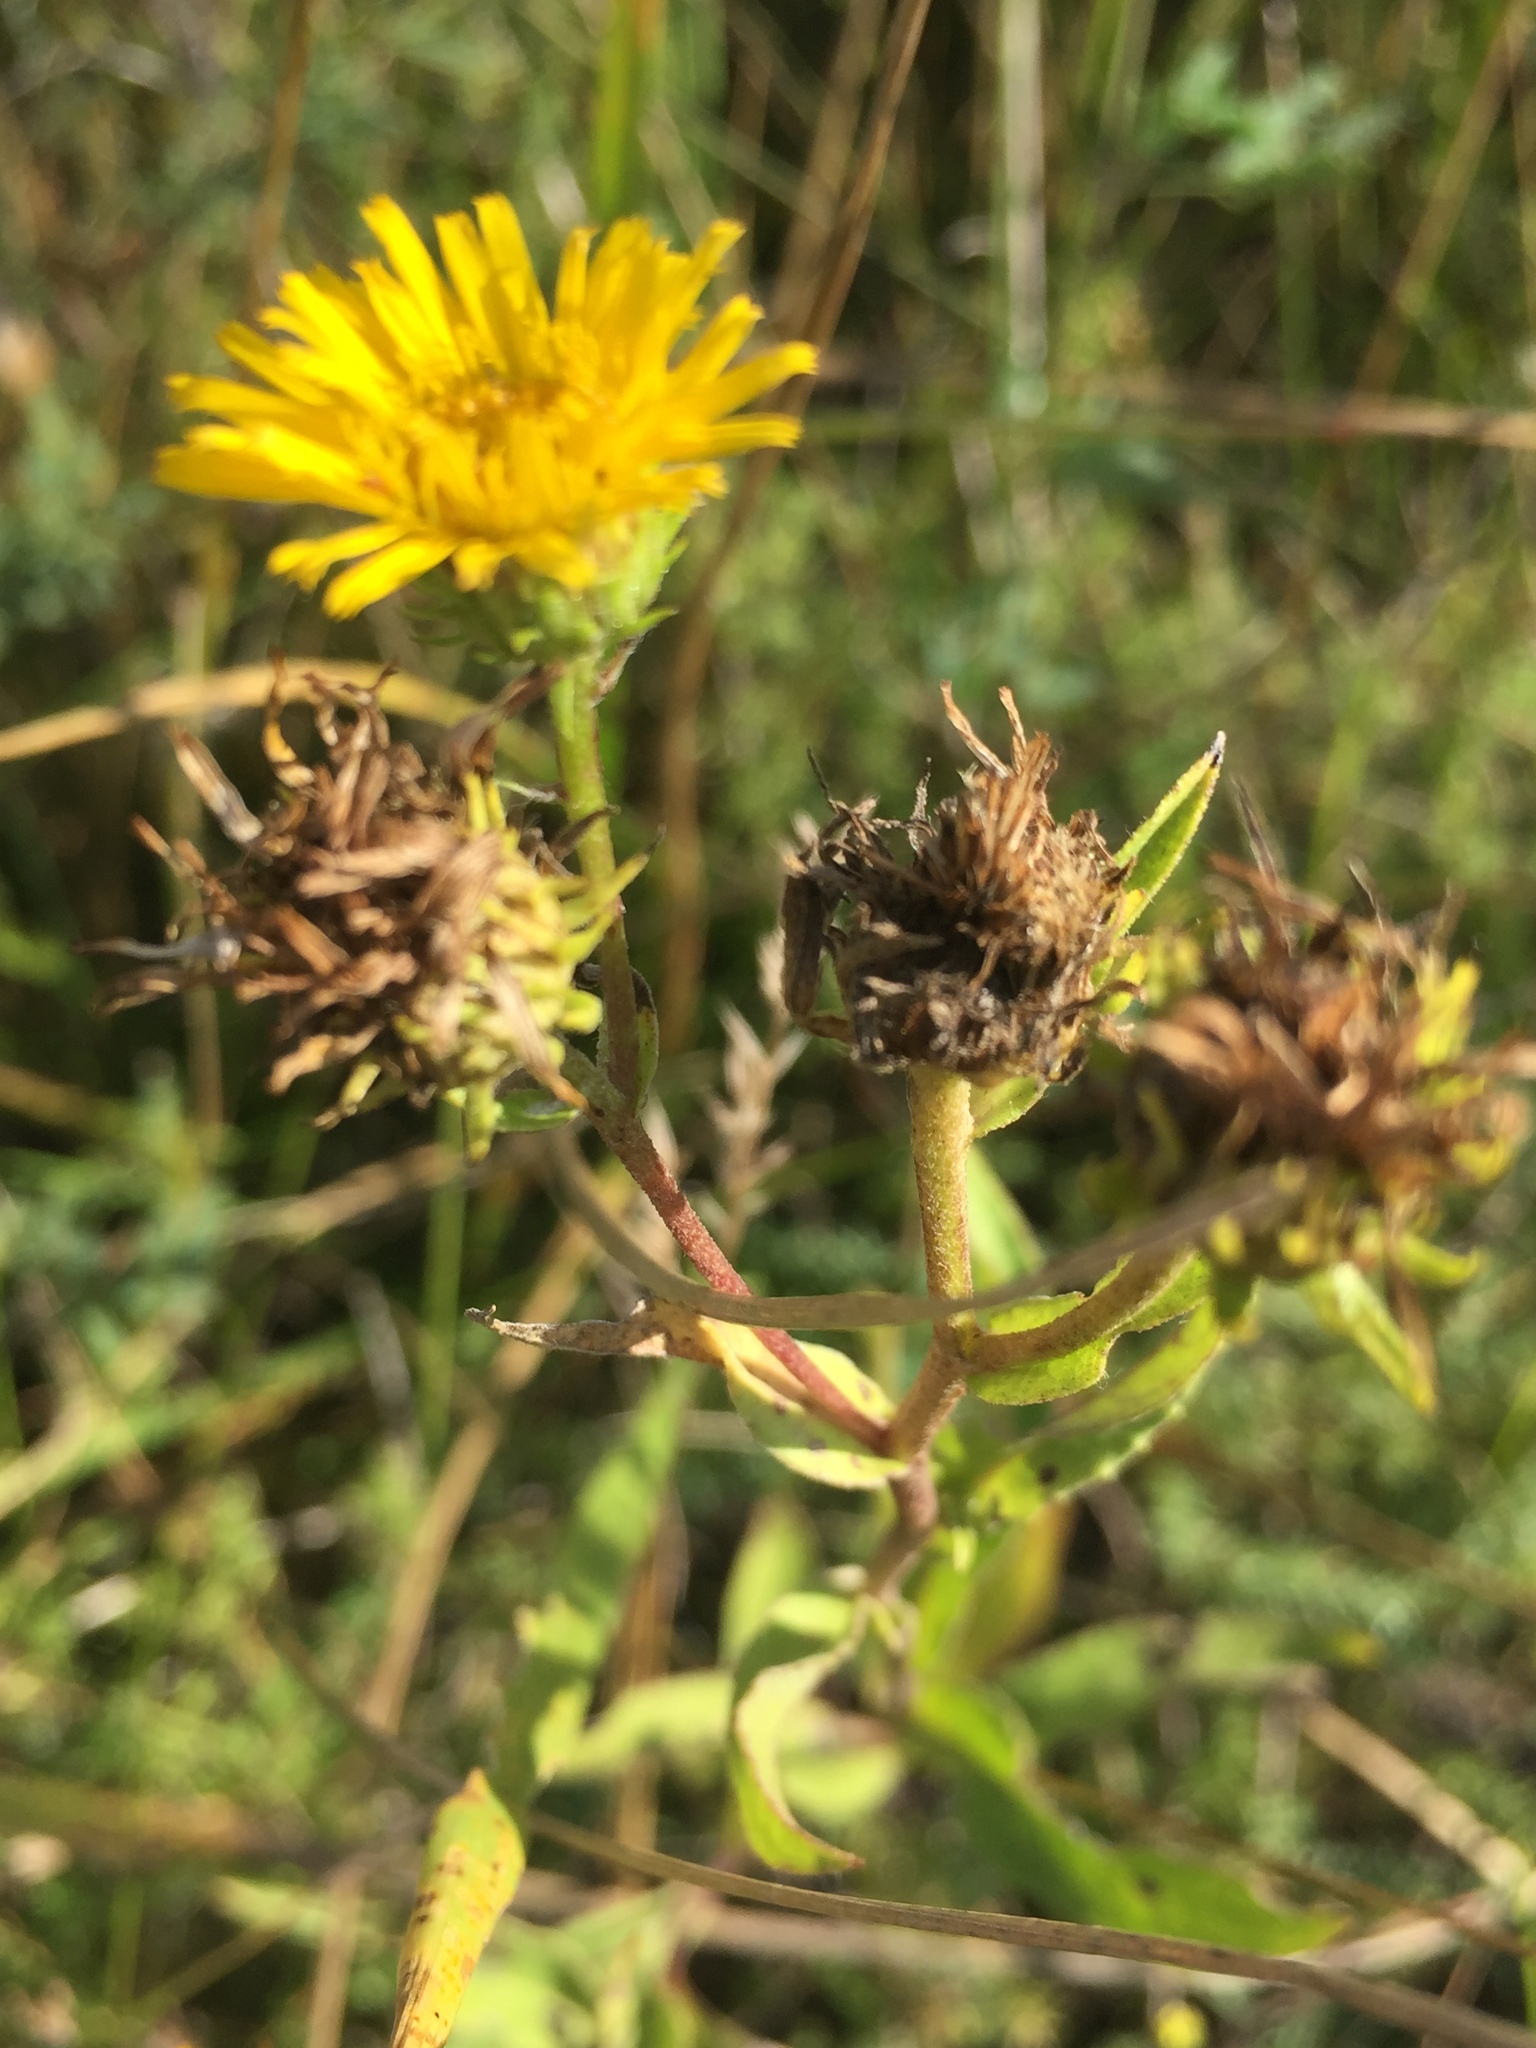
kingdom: Plantae
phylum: Tracheophyta
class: Magnoliopsida
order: Asterales
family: Asteraceae
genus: Pentanema
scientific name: Pentanema britannicum
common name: British elecampane
